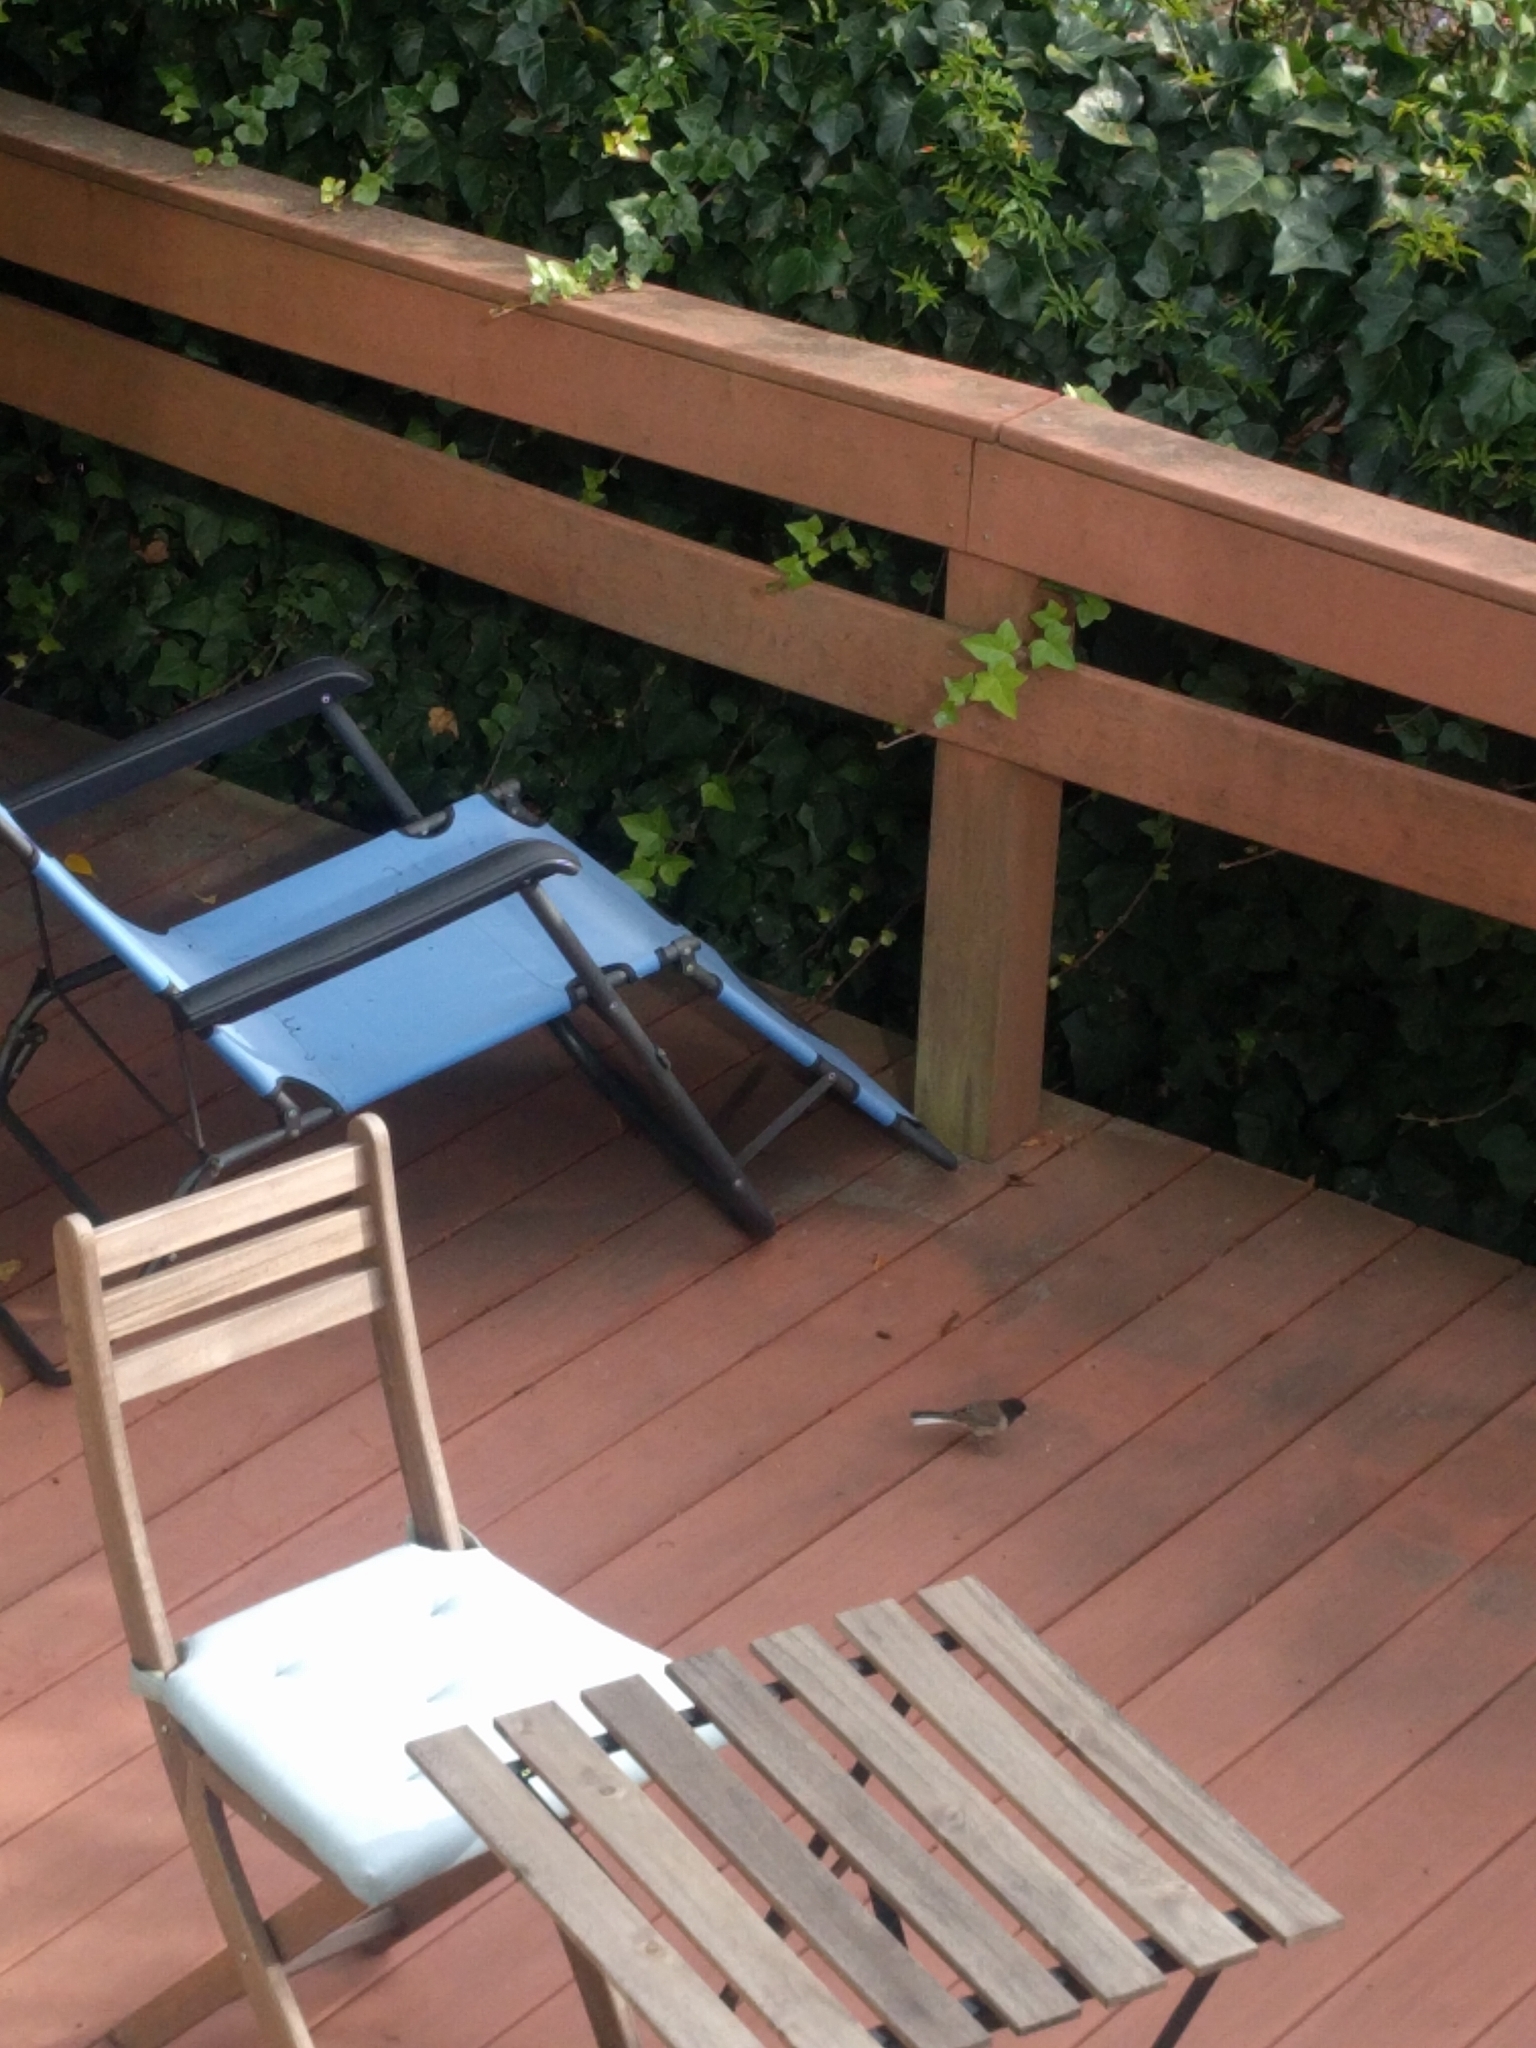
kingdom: Animalia
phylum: Chordata
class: Aves
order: Passeriformes
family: Passerellidae
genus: Junco
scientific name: Junco hyemalis
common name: Dark-eyed junco
